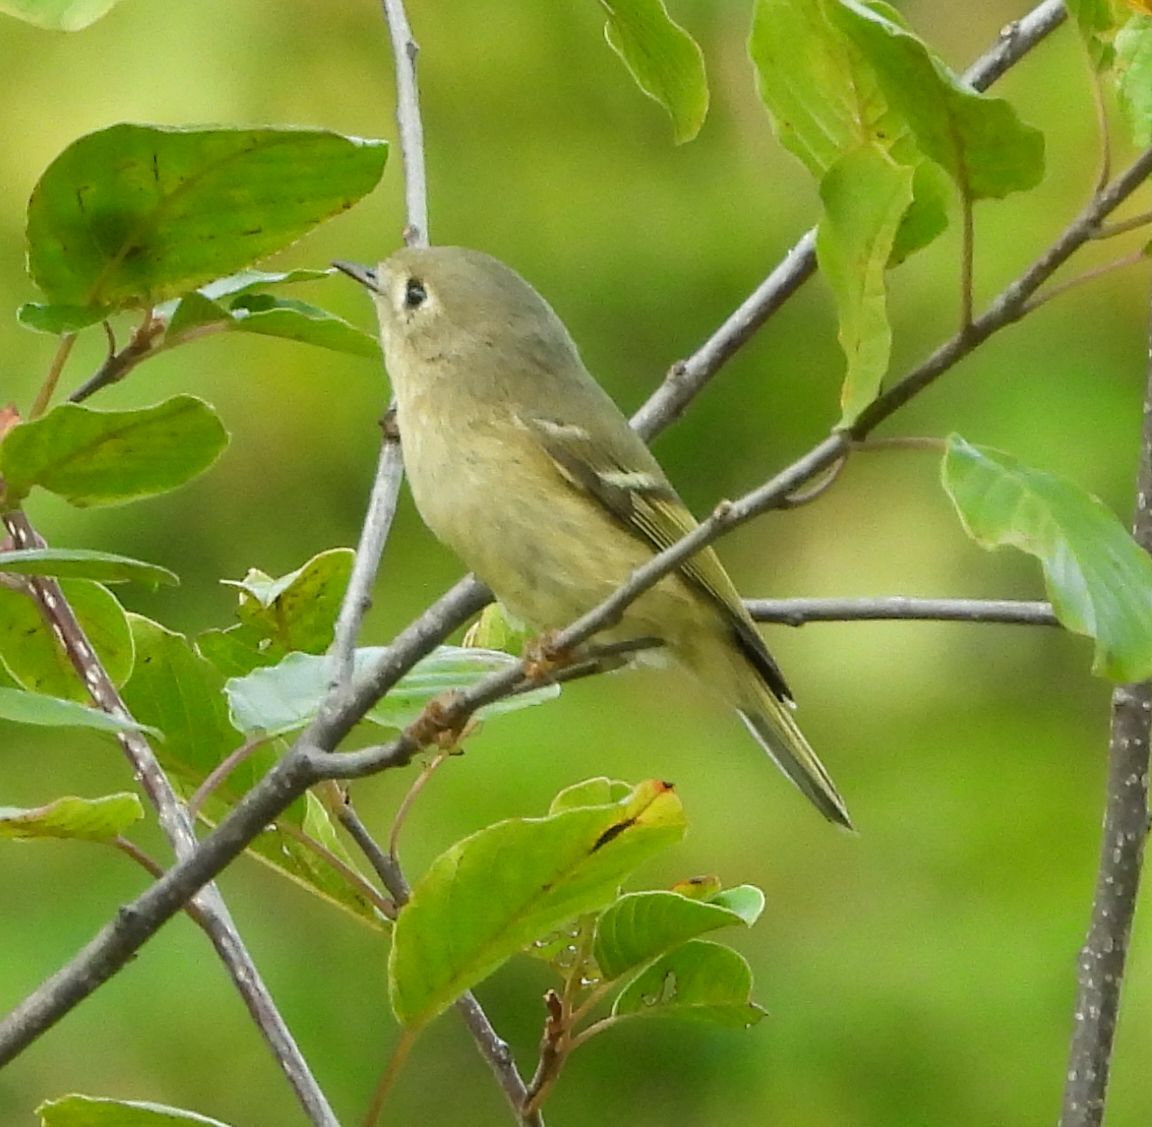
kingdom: Animalia
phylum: Chordata
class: Aves
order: Passeriformes
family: Regulidae
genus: Regulus
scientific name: Regulus calendula
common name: Ruby-crowned kinglet
